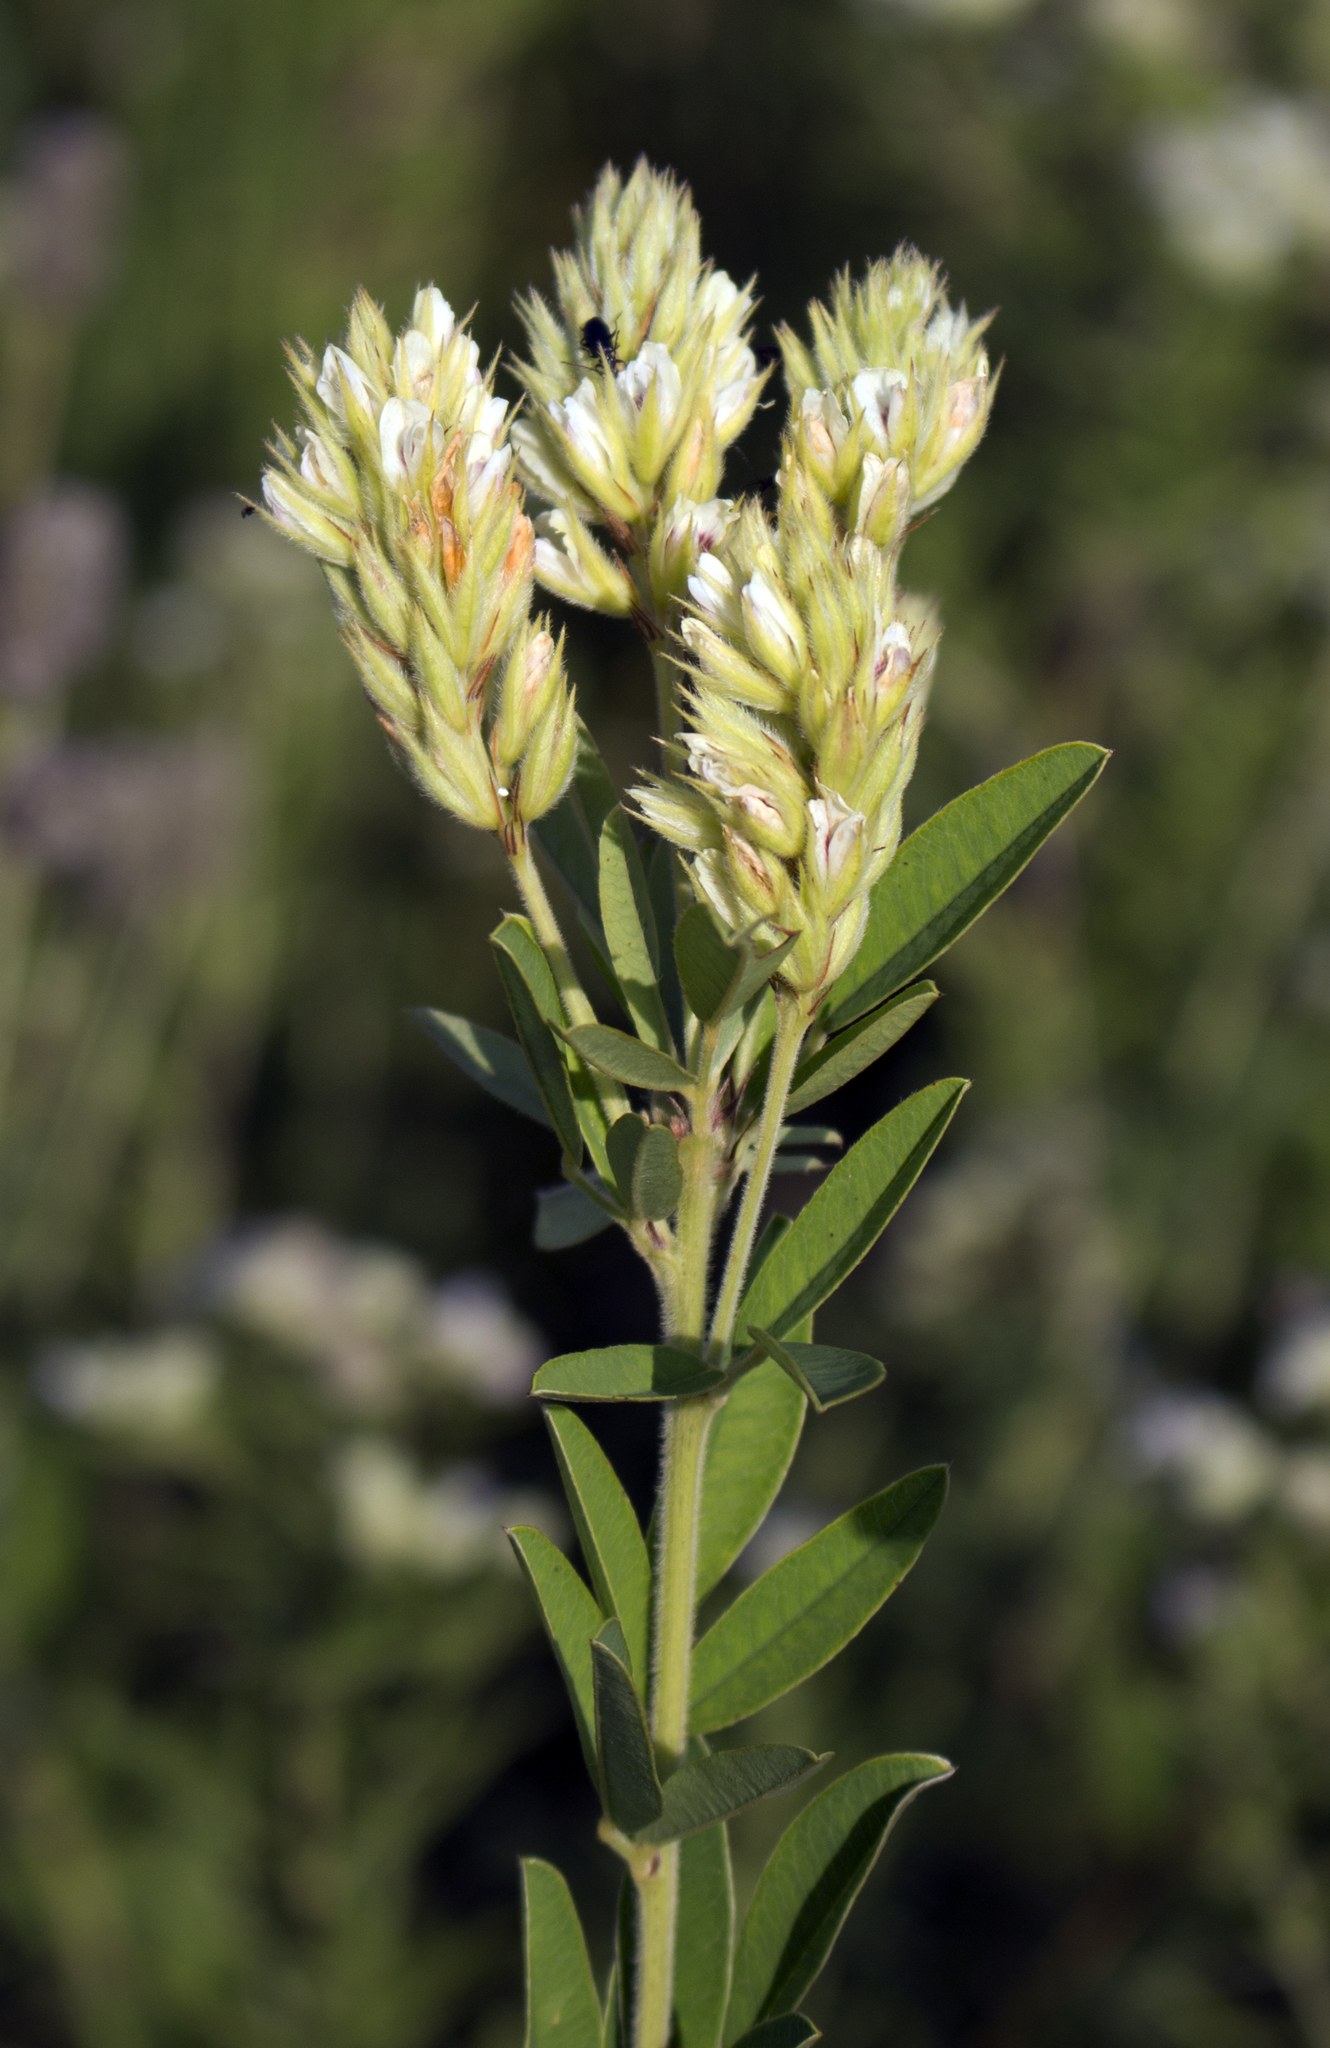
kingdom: Plantae
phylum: Tracheophyta
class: Magnoliopsida
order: Fabales
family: Fabaceae
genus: Lespedeza
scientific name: Lespedeza capitata
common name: Dusty clover
